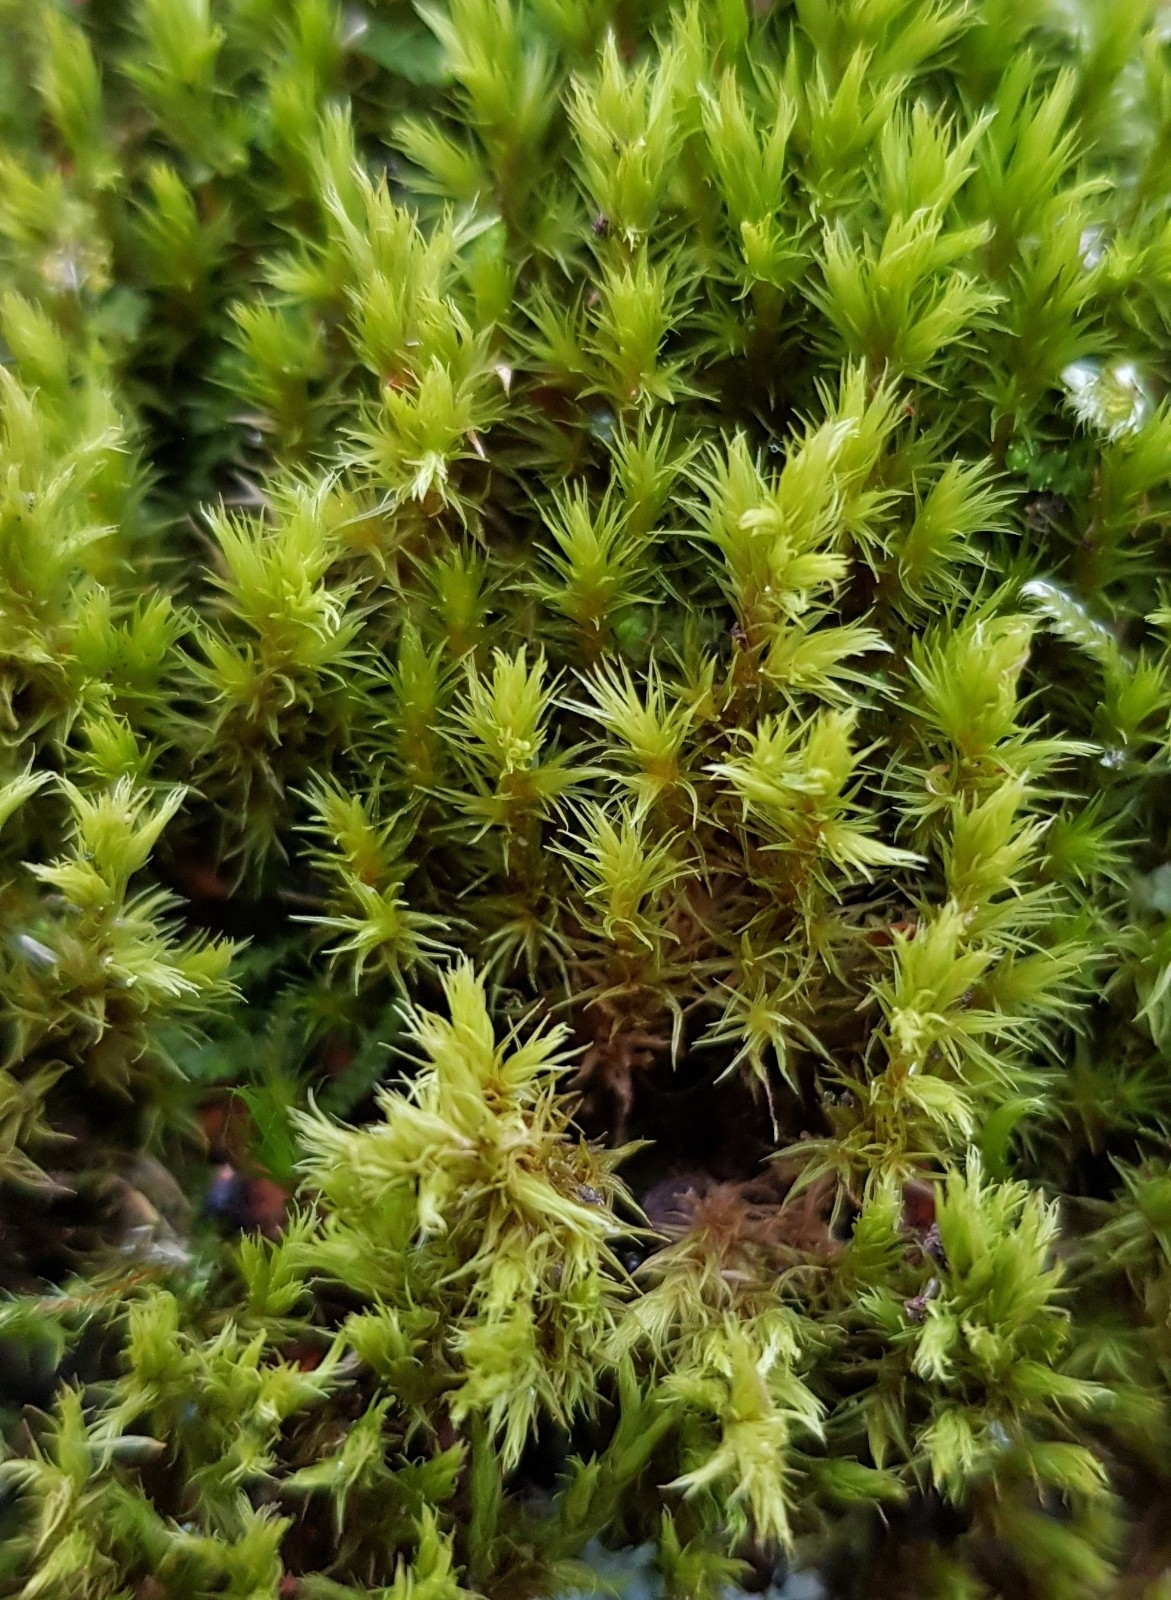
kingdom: Plantae
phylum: Bryophyta
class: Bryopsida
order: Grimmiales
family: Grimmiaceae
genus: Dilutineuron
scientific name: Dilutineuron fasciculare
